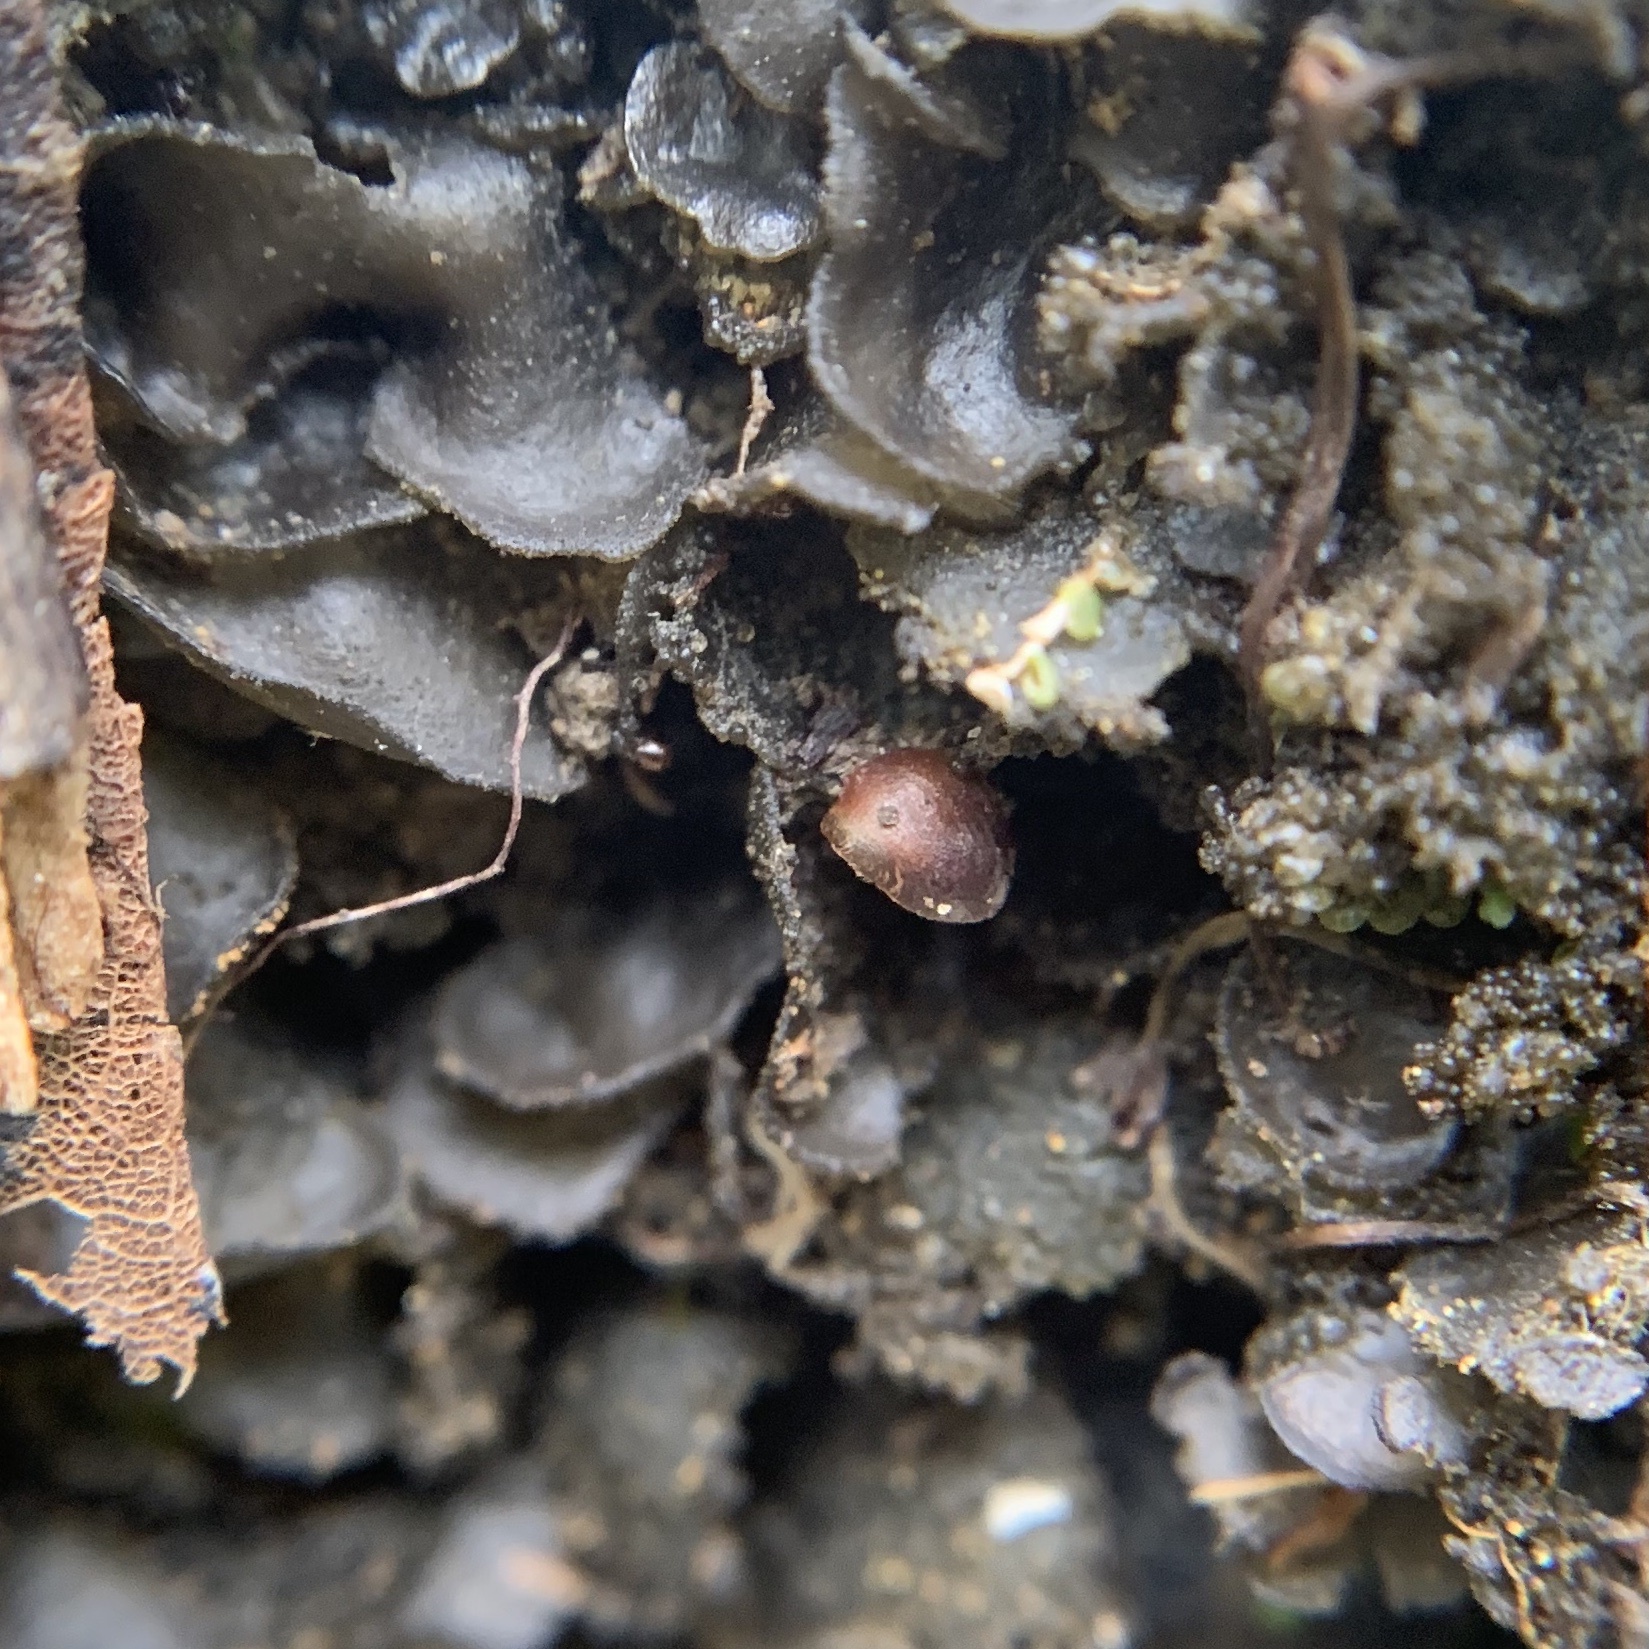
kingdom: Fungi
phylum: Ascomycota
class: Lecanoromycetes
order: Peltigerales
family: Collemataceae
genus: Leptogium
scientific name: Leptogium cyanescens
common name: Blue jellyskin
